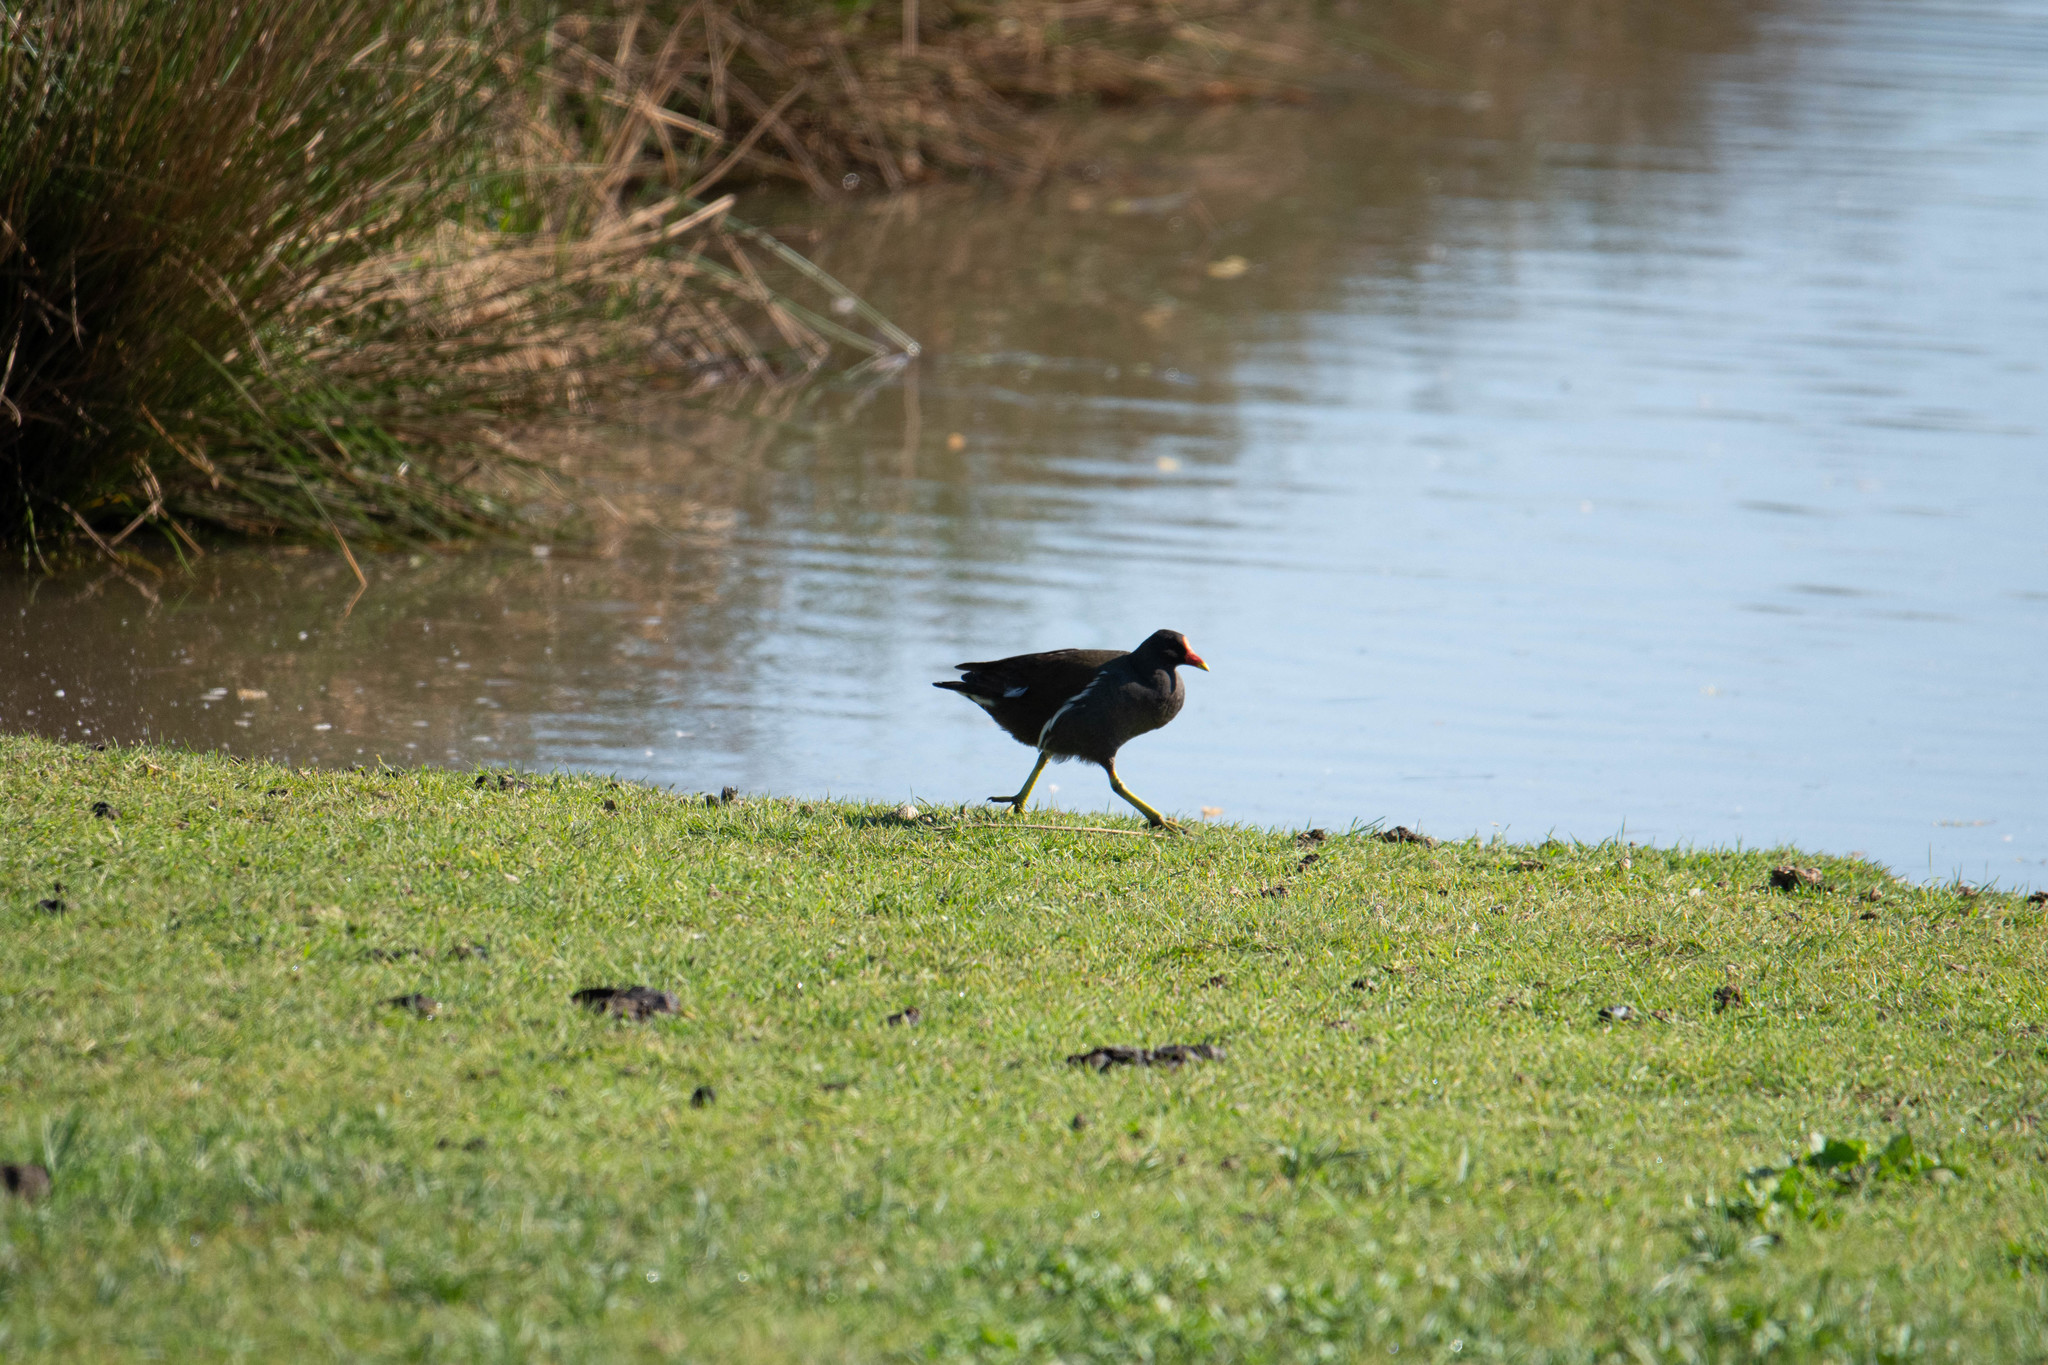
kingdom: Animalia
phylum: Chordata
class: Aves
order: Gruiformes
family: Rallidae
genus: Gallinula
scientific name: Gallinula chloropus
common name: Common moorhen
